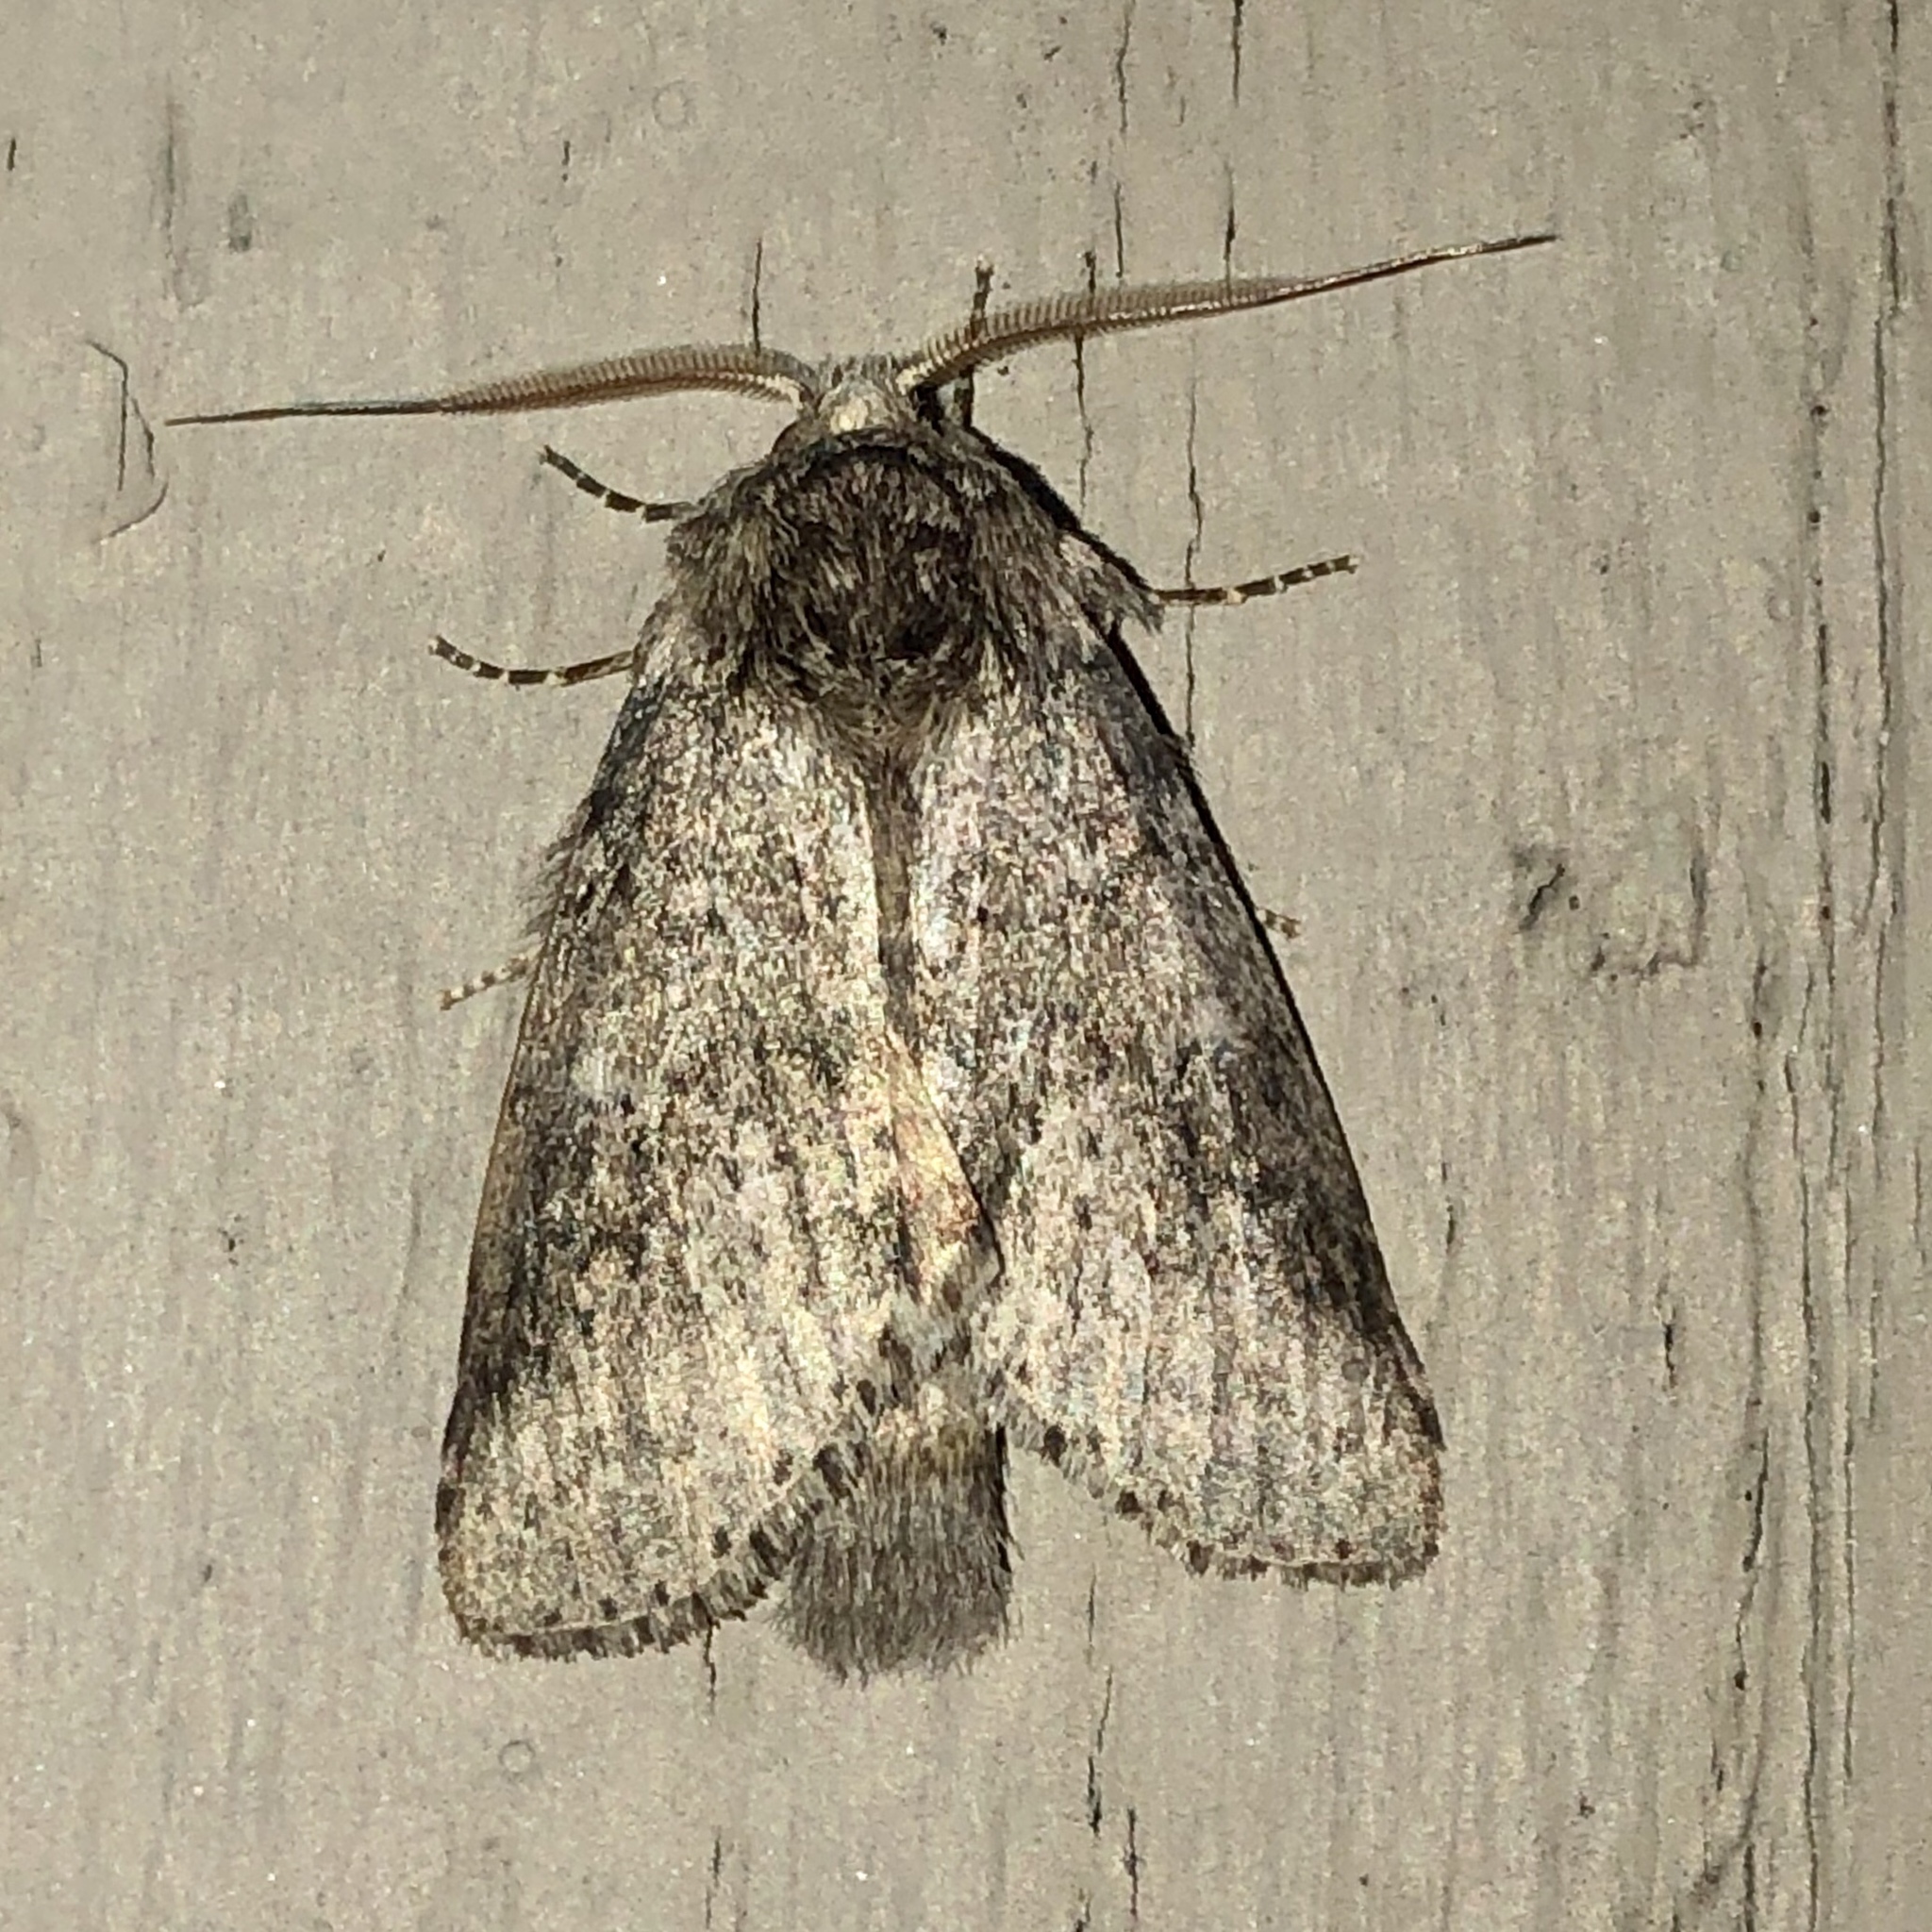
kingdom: Animalia
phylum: Arthropoda
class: Insecta
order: Lepidoptera
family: Notodontidae
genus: Lochmaeus
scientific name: Lochmaeus manteo
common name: Variable oakleaf caterpillar moth
